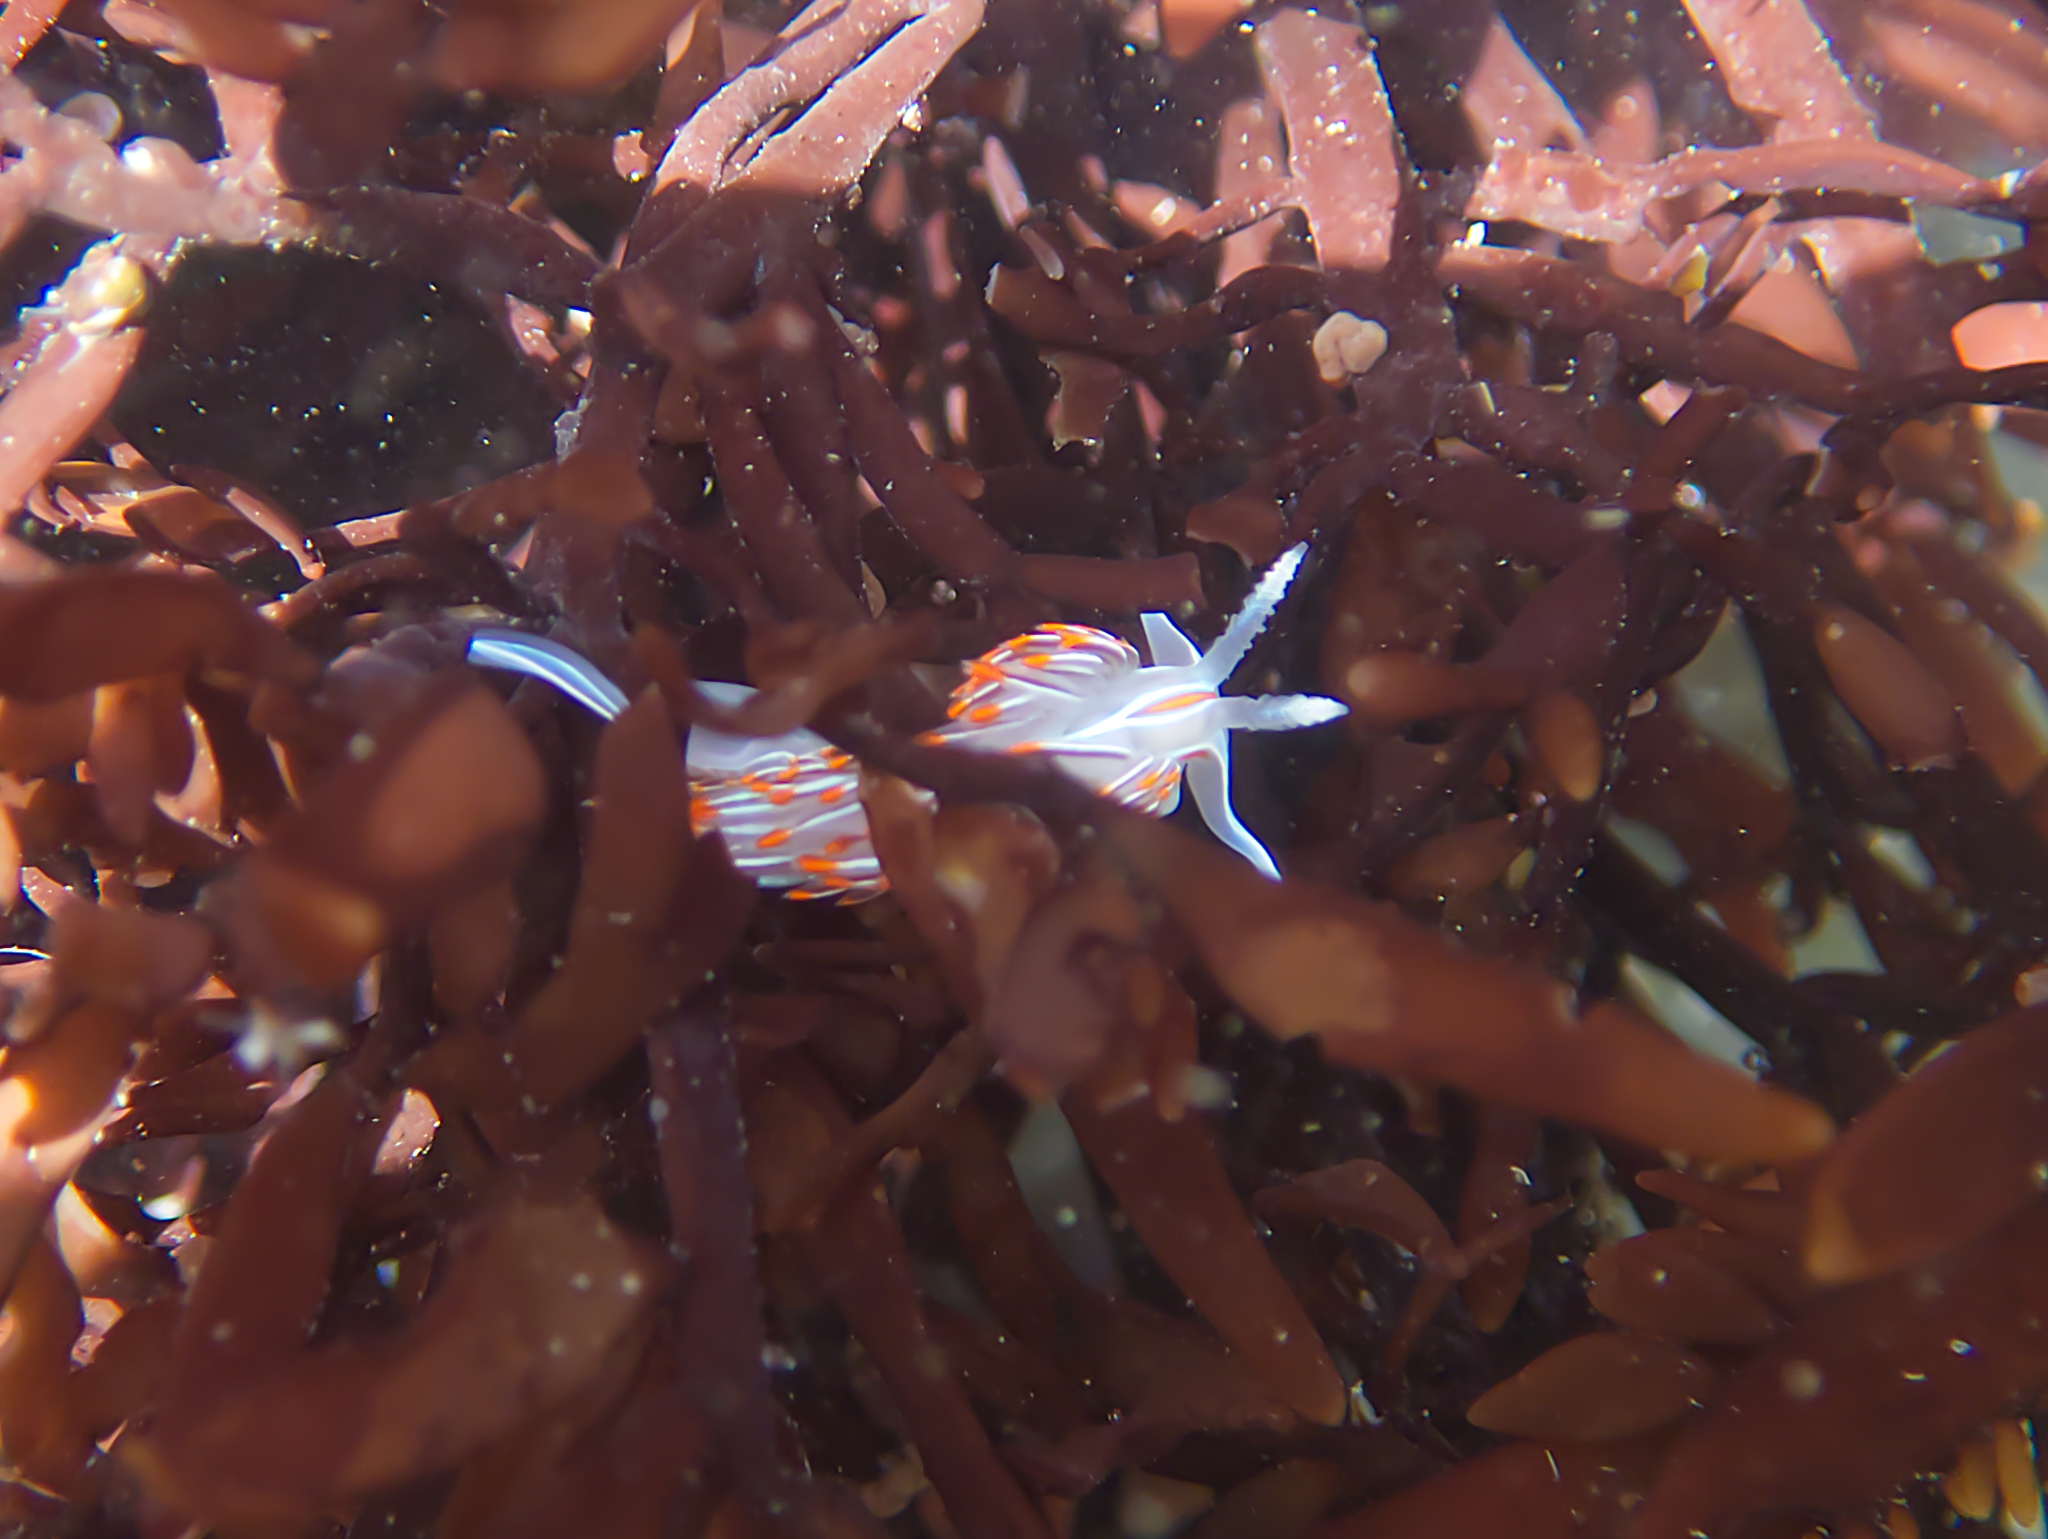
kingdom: Animalia
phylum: Mollusca
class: Gastropoda
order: Nudibranchia
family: Myrrhinidae
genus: Hermissenda
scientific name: Hermissenda crassicornis
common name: Hermissenda
